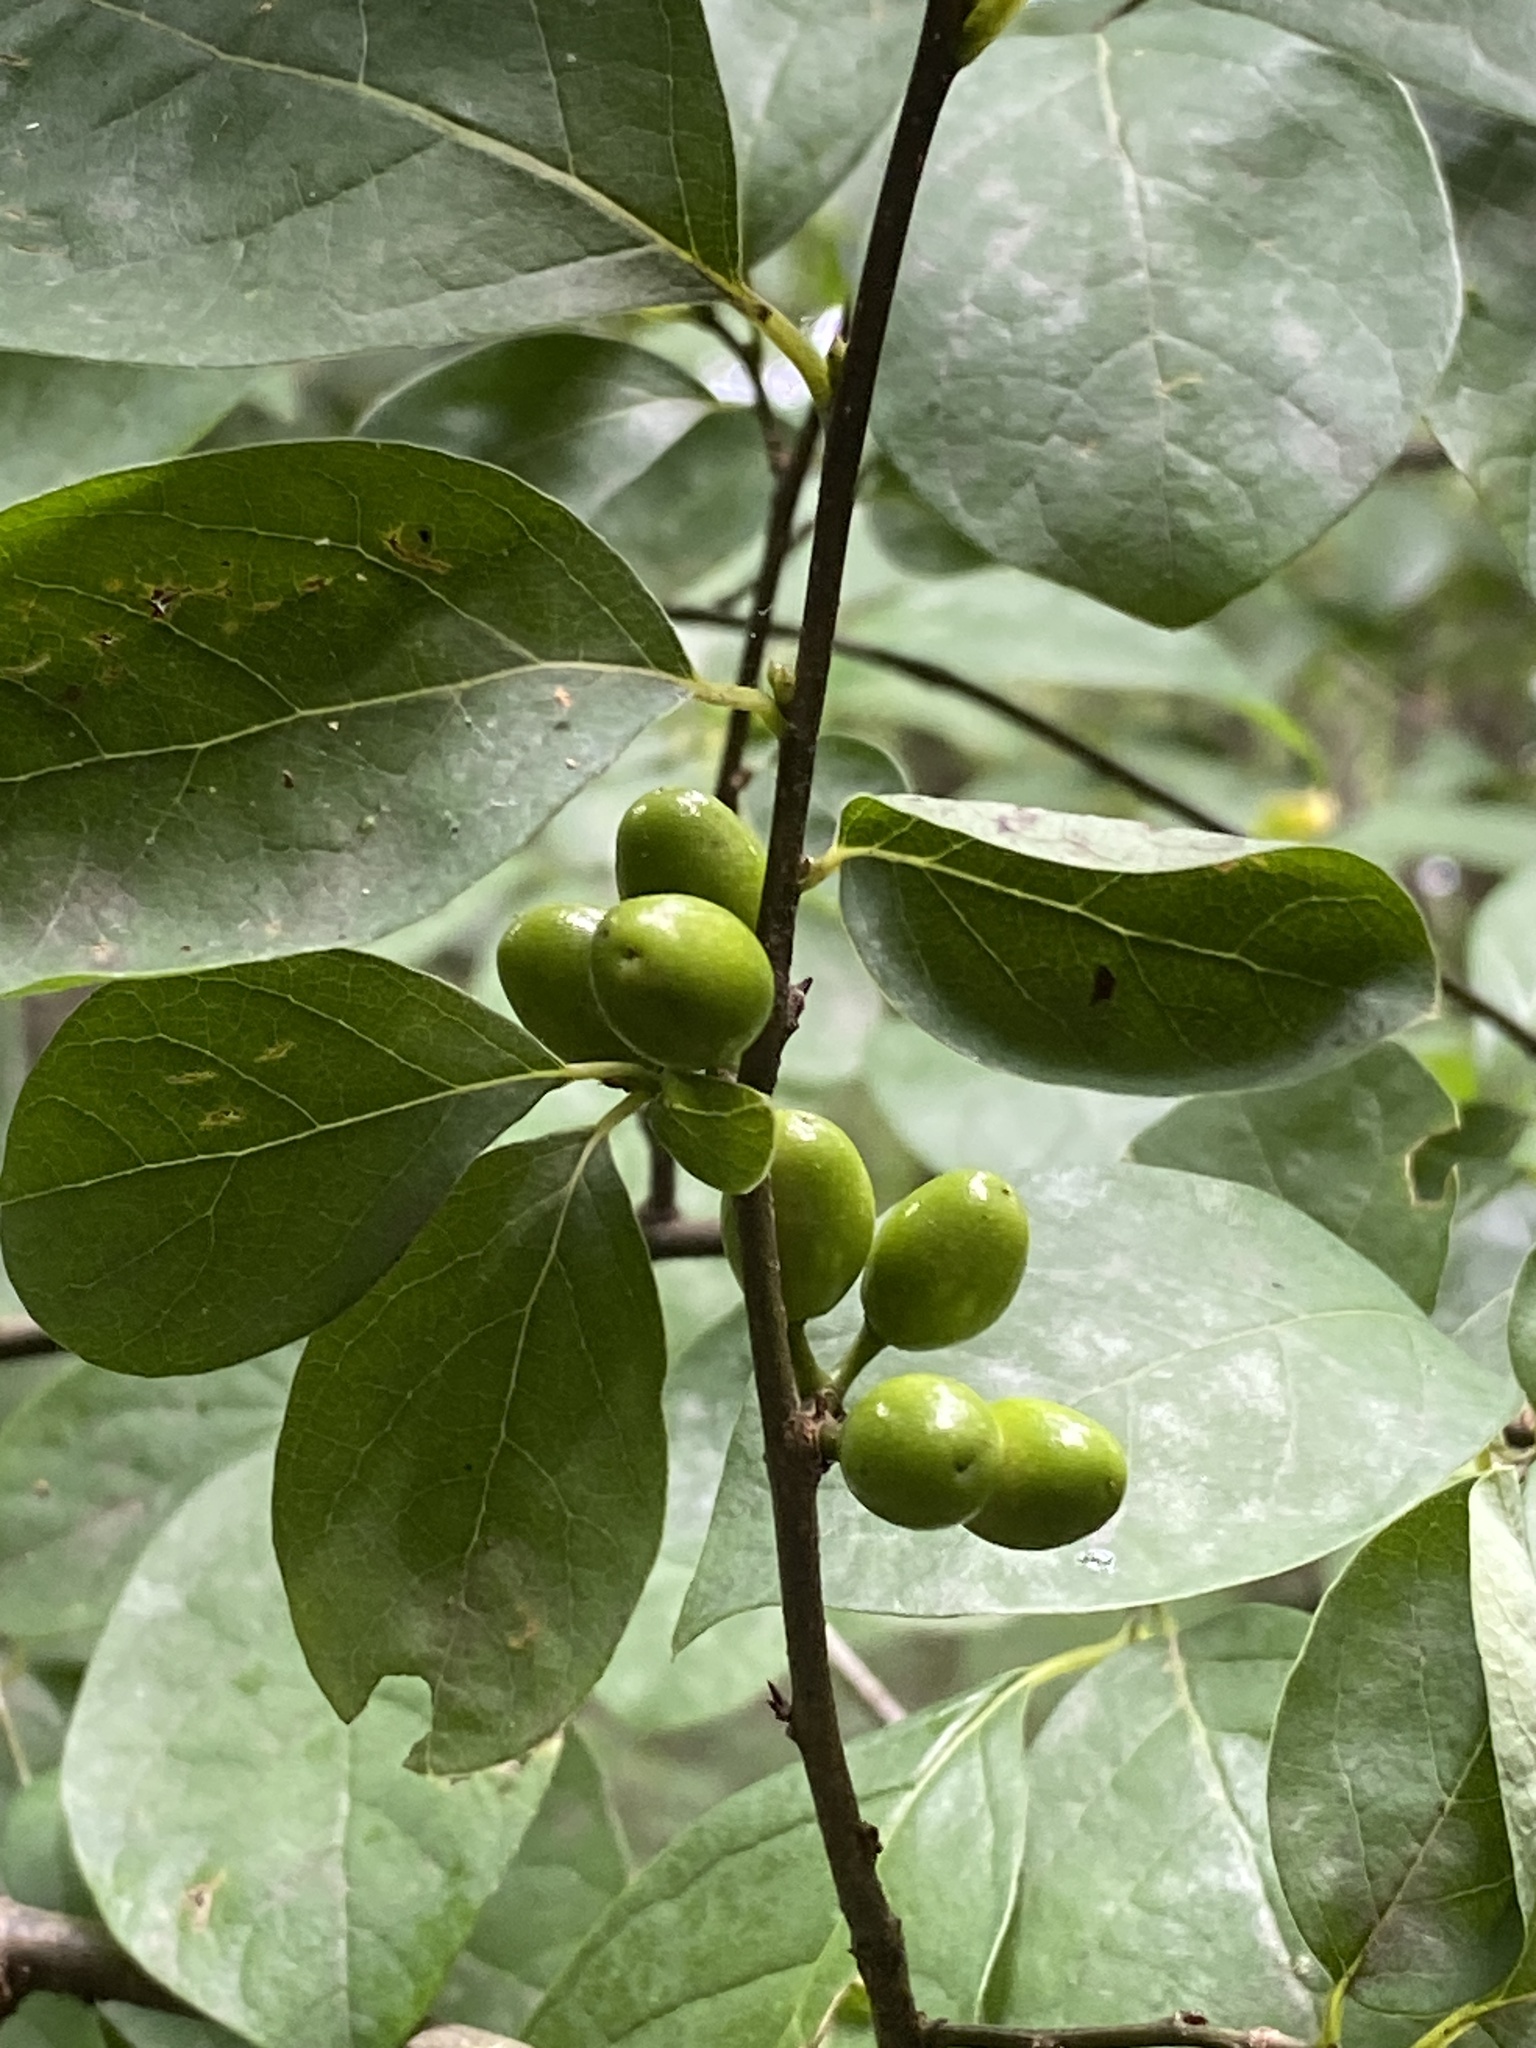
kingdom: Plantae
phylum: Tracheophyta
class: Magnoliopsida
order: Laurales
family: Lauraceae
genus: Lindera
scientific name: Lindera benzoin
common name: Spicebush
